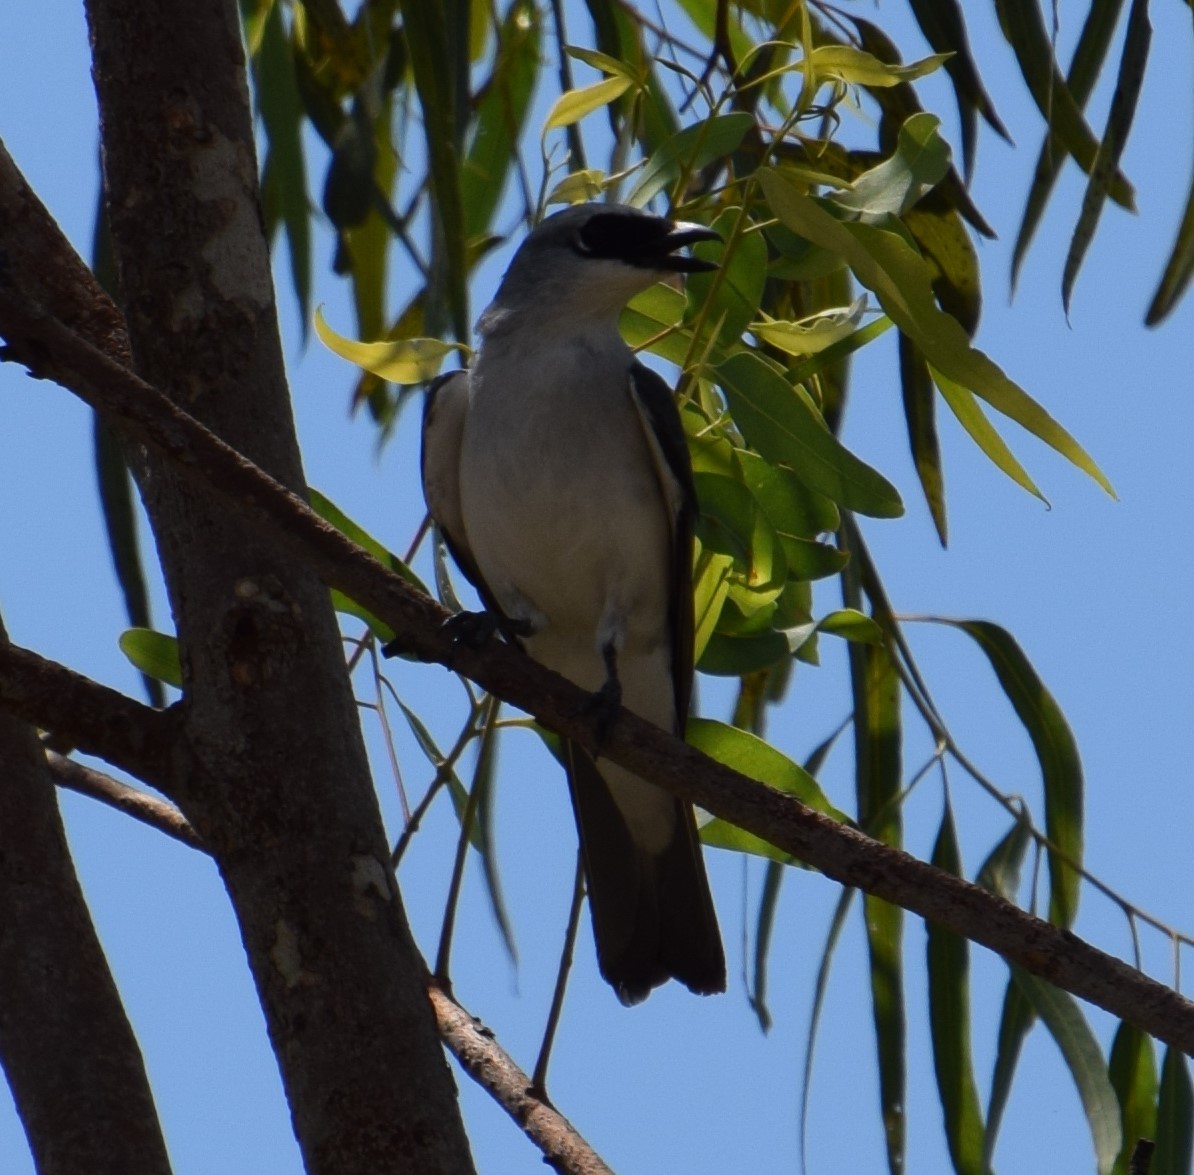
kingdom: Animalia
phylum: Chordata
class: Aves
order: Passeriformes
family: Campephagidae
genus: Coracina
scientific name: Coracina papuensis
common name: White-bellied cuckooshrike
